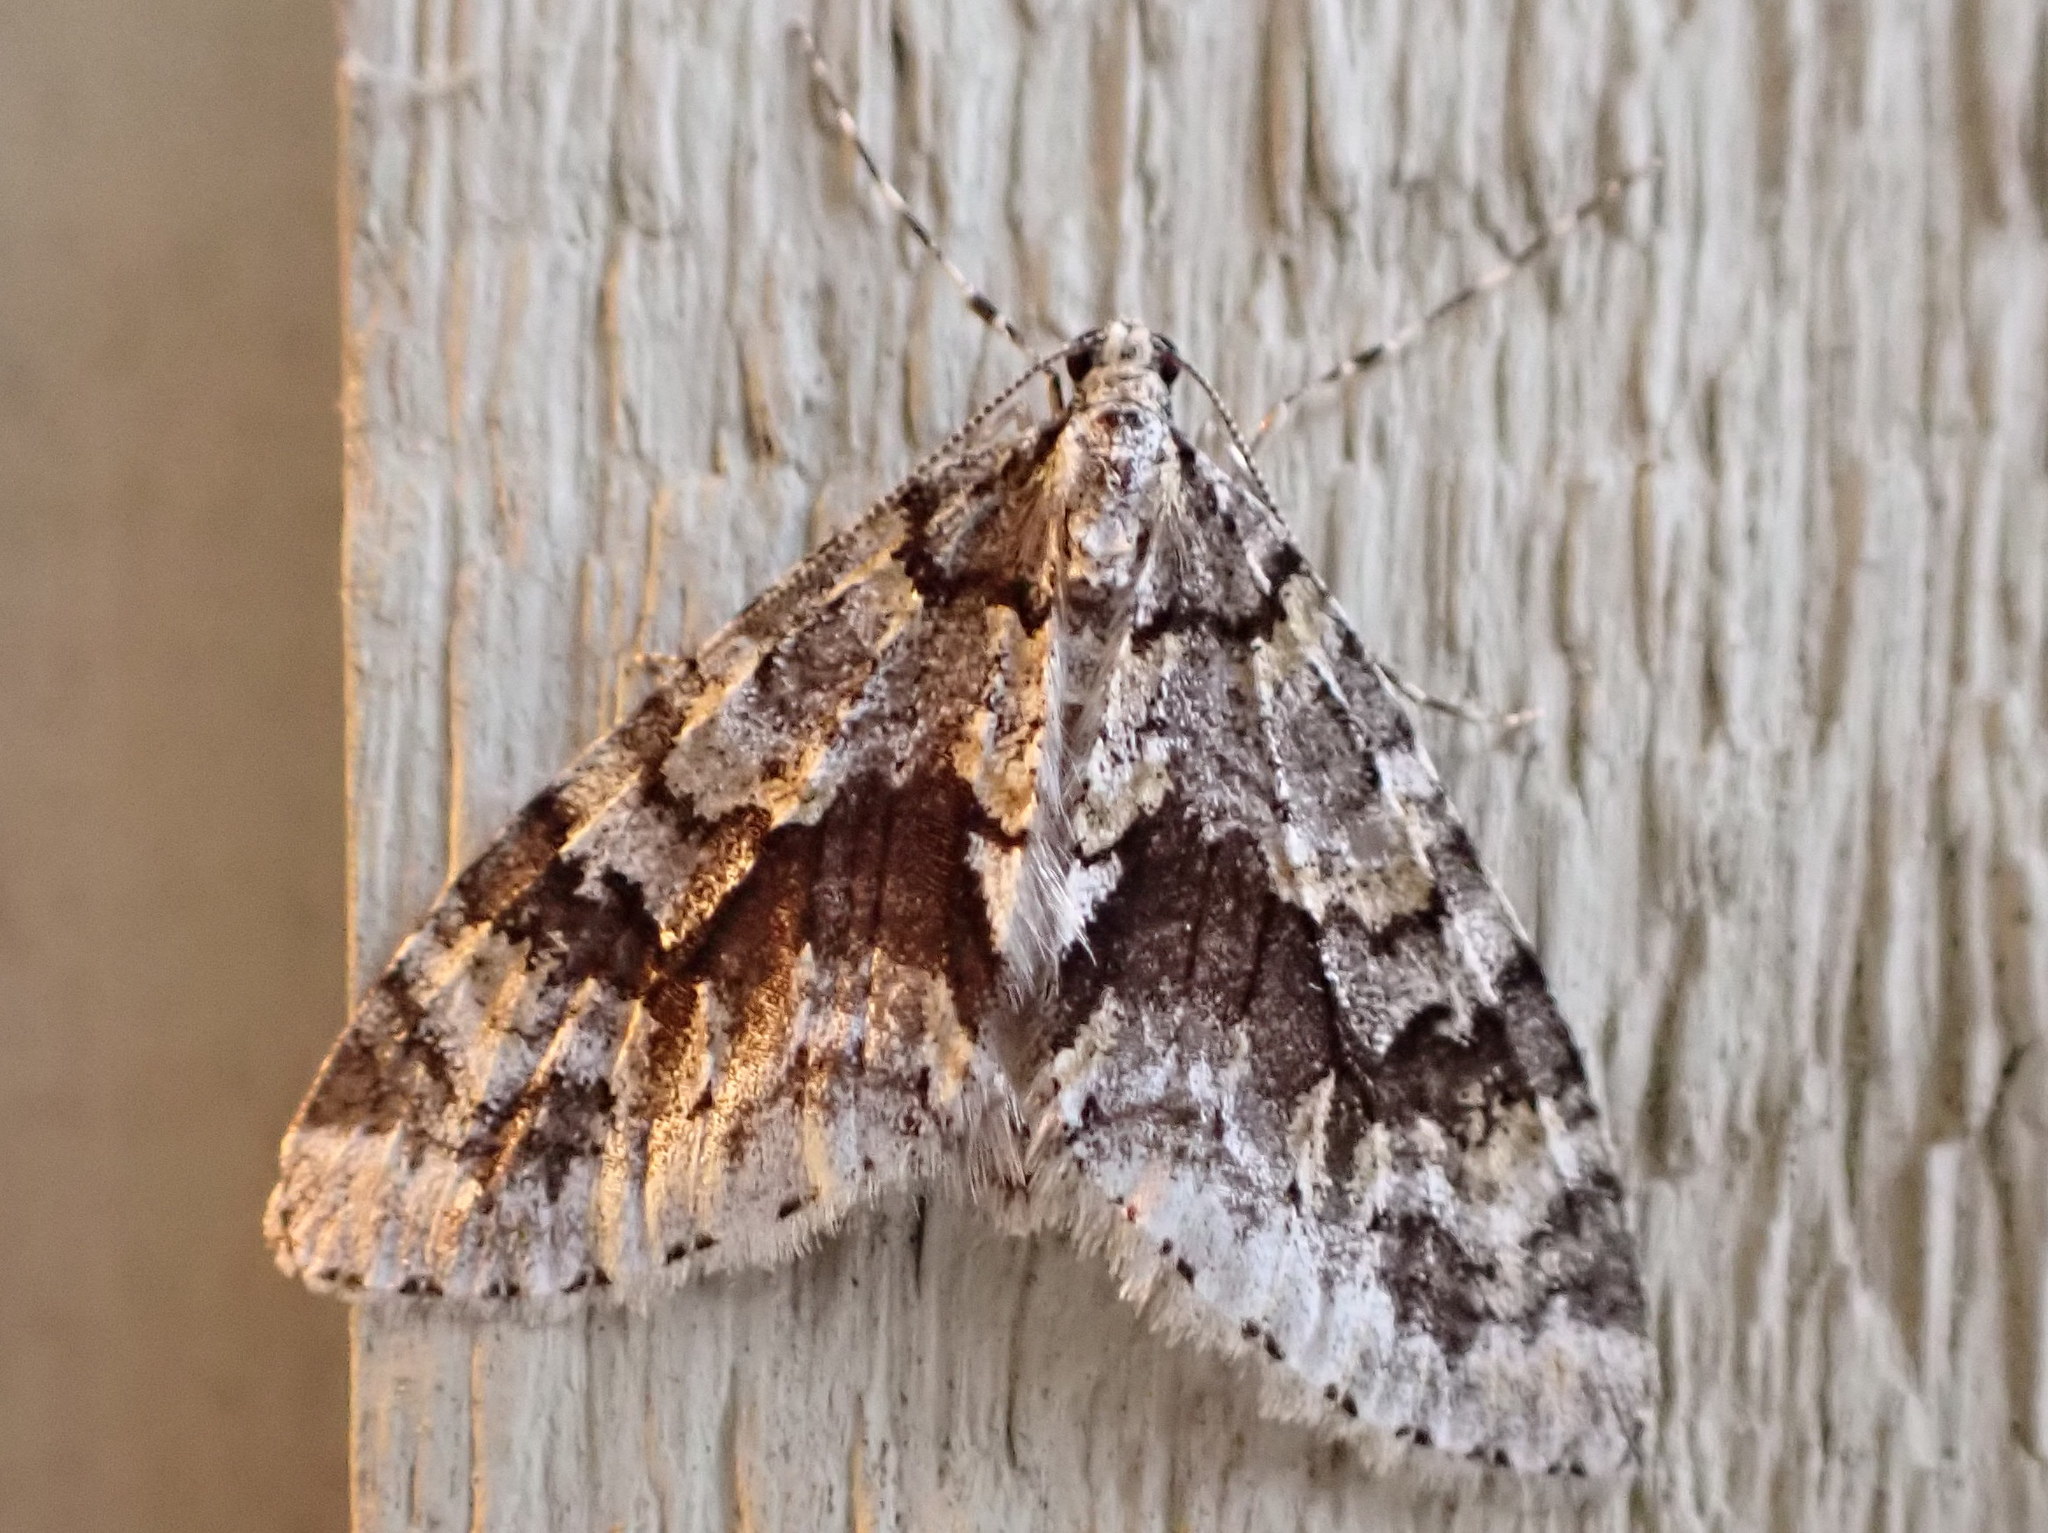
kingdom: Animalia
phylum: Arthropoda
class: Insecta
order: Lepidoptera
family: Geometridae
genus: Cladara
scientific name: Cladara limitaria
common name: Mottled gray carpet
